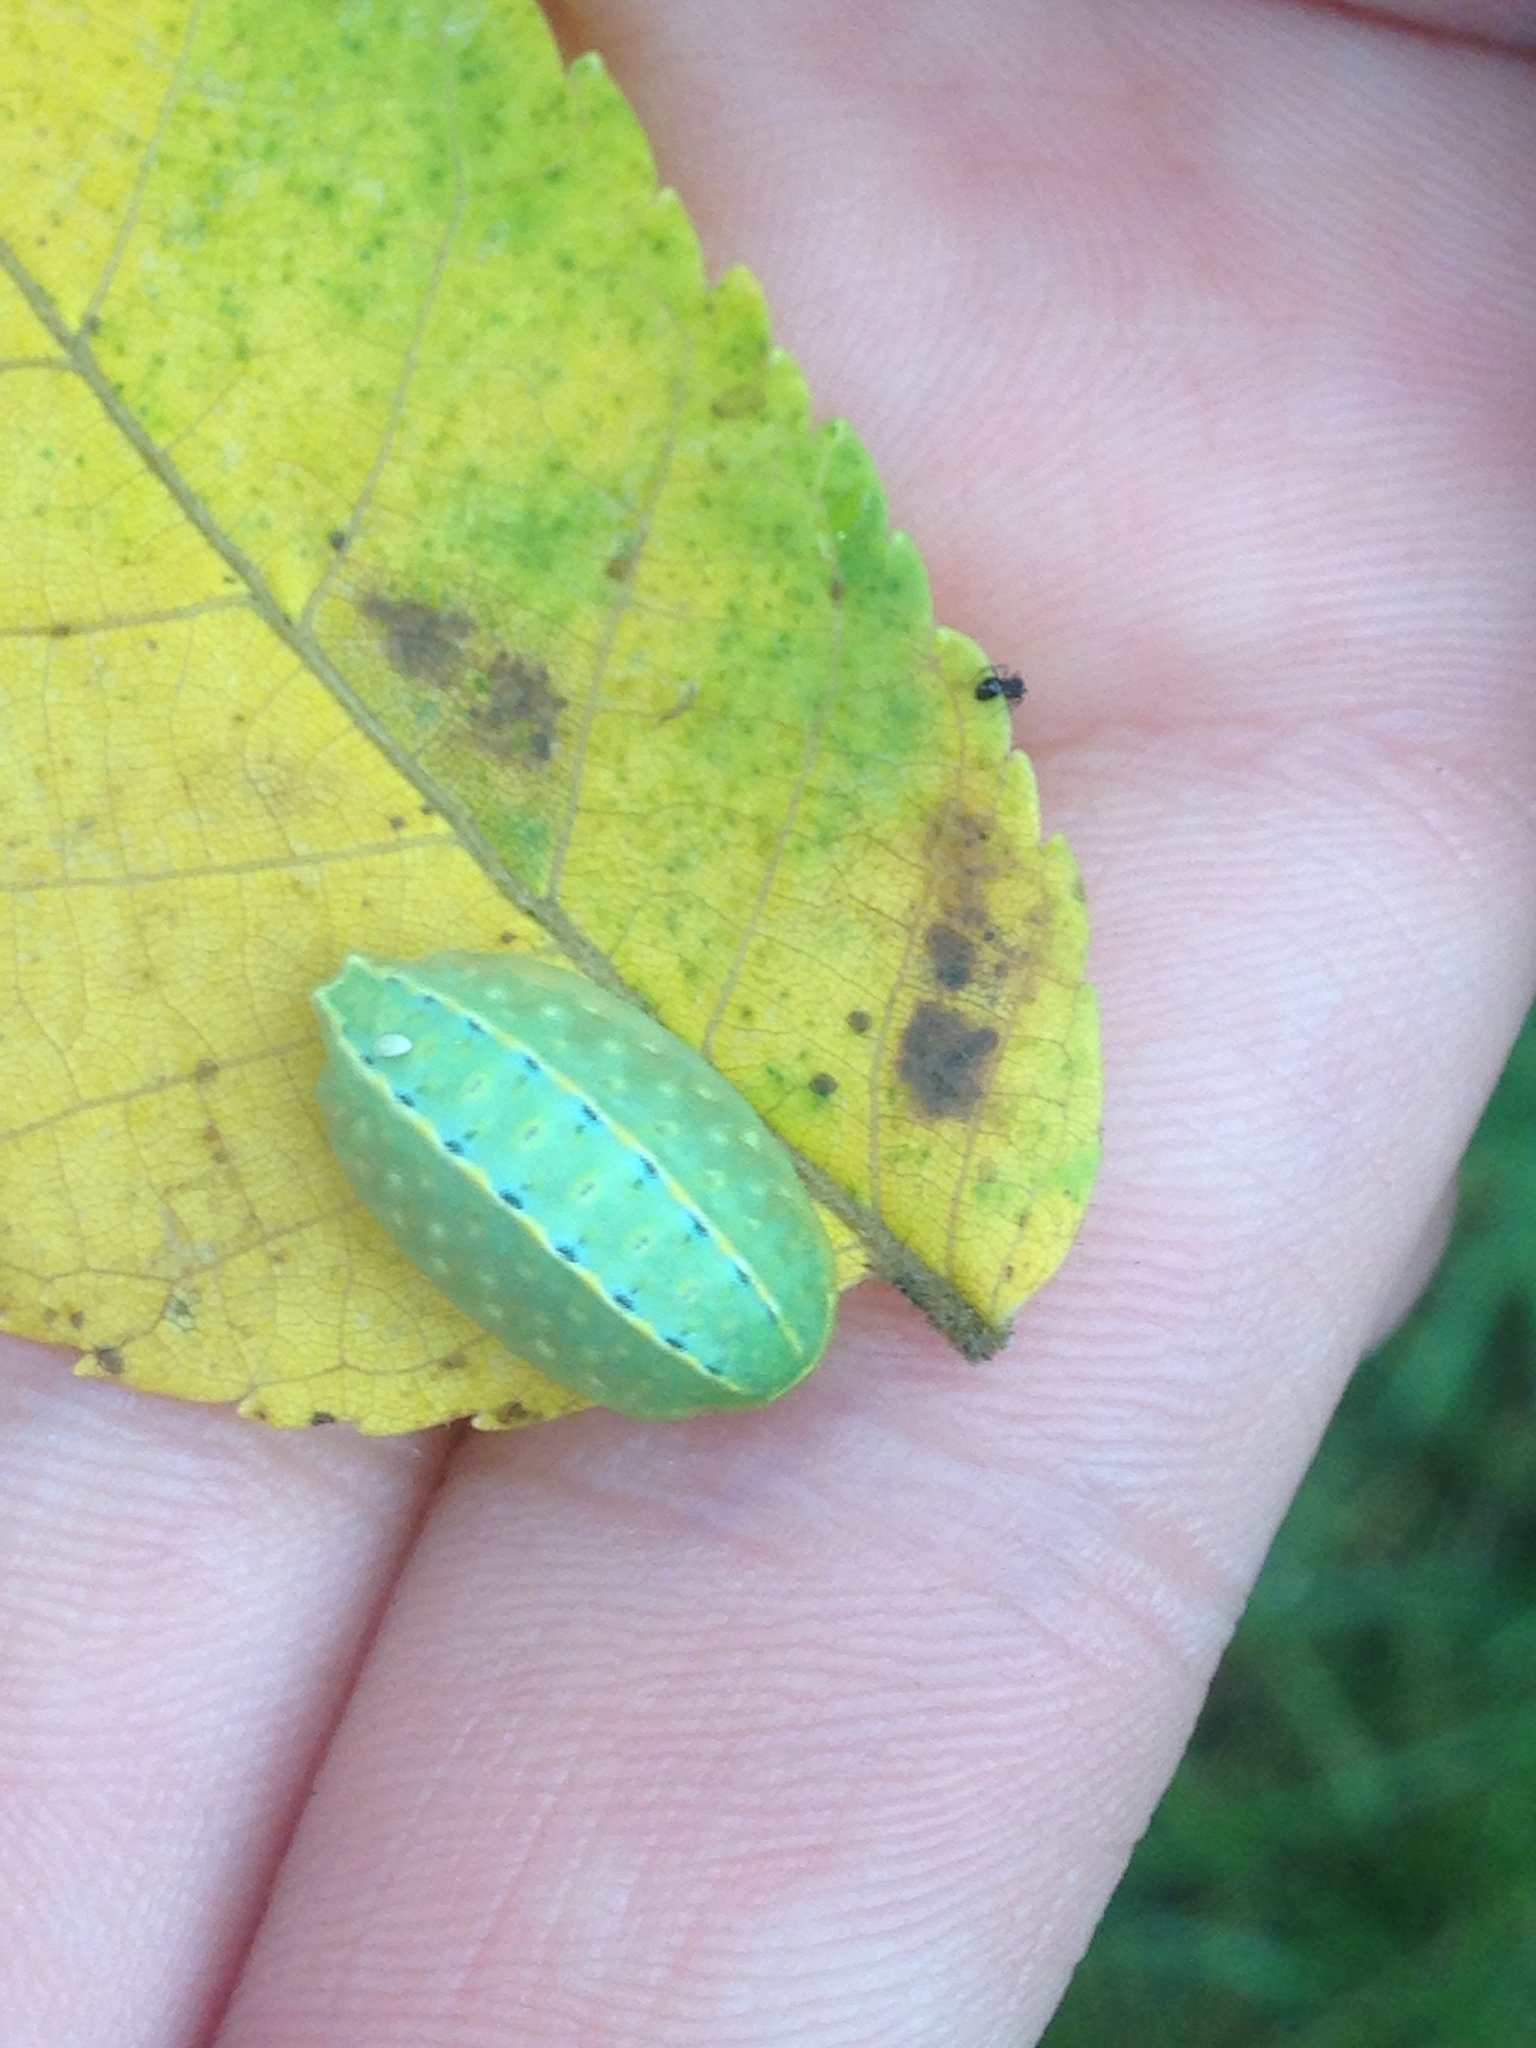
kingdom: Animalia
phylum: Arthropoda
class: Insecta
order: Lepidoptera
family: Limacodidae
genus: Apoda
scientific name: Apoda y-inversa
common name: Yellow-collared slug moth
